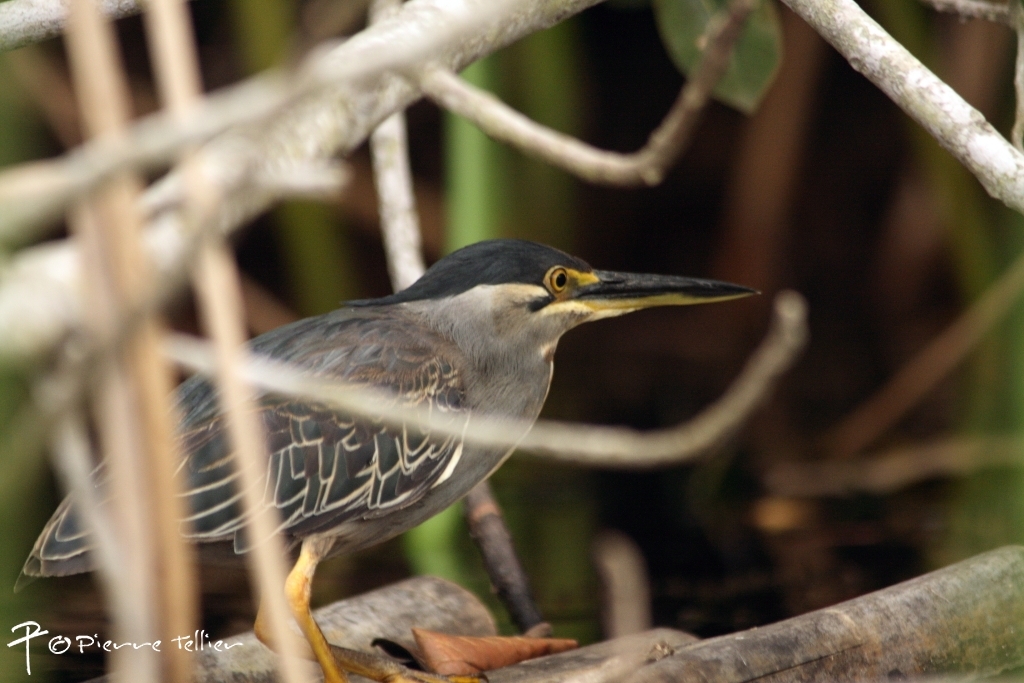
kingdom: Animalia
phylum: Chordata
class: Aves
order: Pelecaniformes
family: Ardeidae
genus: Butorides
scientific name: Butorides striata
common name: Striated heron
